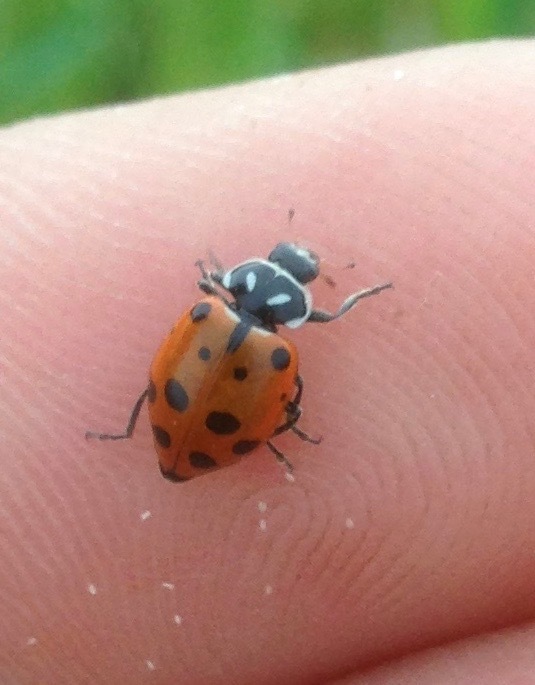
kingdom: Animalia
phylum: Arthropoda
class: Insecta
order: Coleoptera
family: Coccinellidae
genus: Hippodamia
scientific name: Hippodamia convergens
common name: Convergent lady beetle
